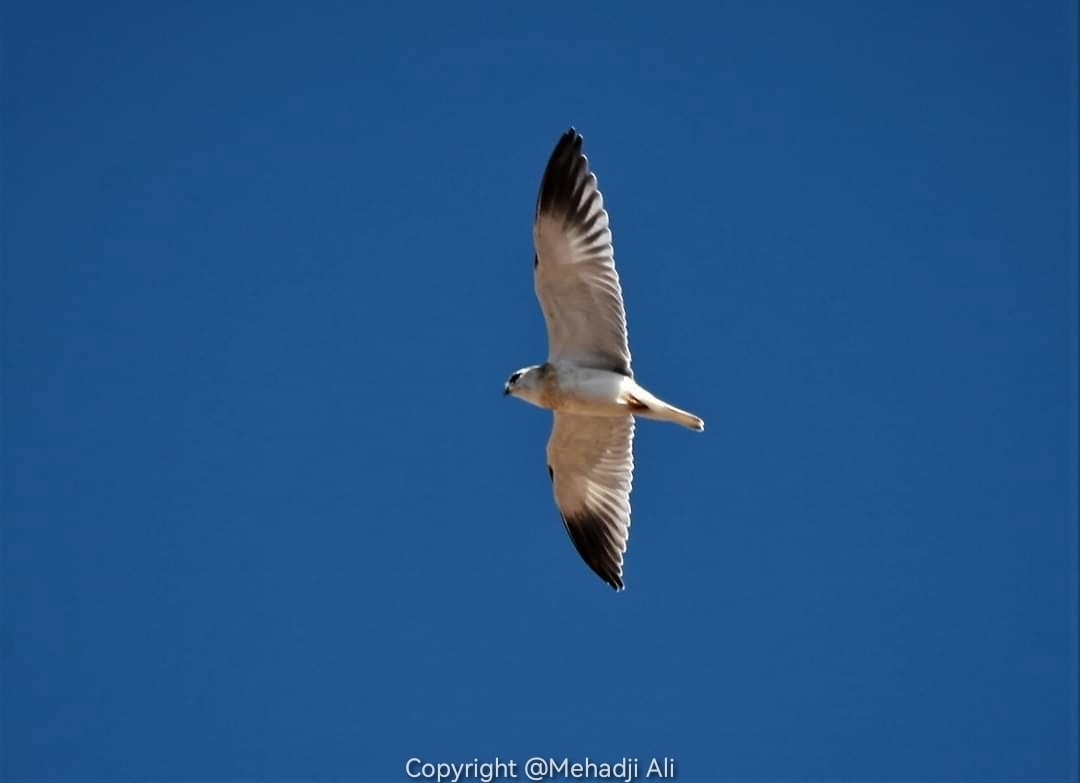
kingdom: Animalia
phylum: Chordata
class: Aves
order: Accipitriformes
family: Accipitridae
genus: Elanus
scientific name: Elanus caeruleus
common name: Black-winged kite
